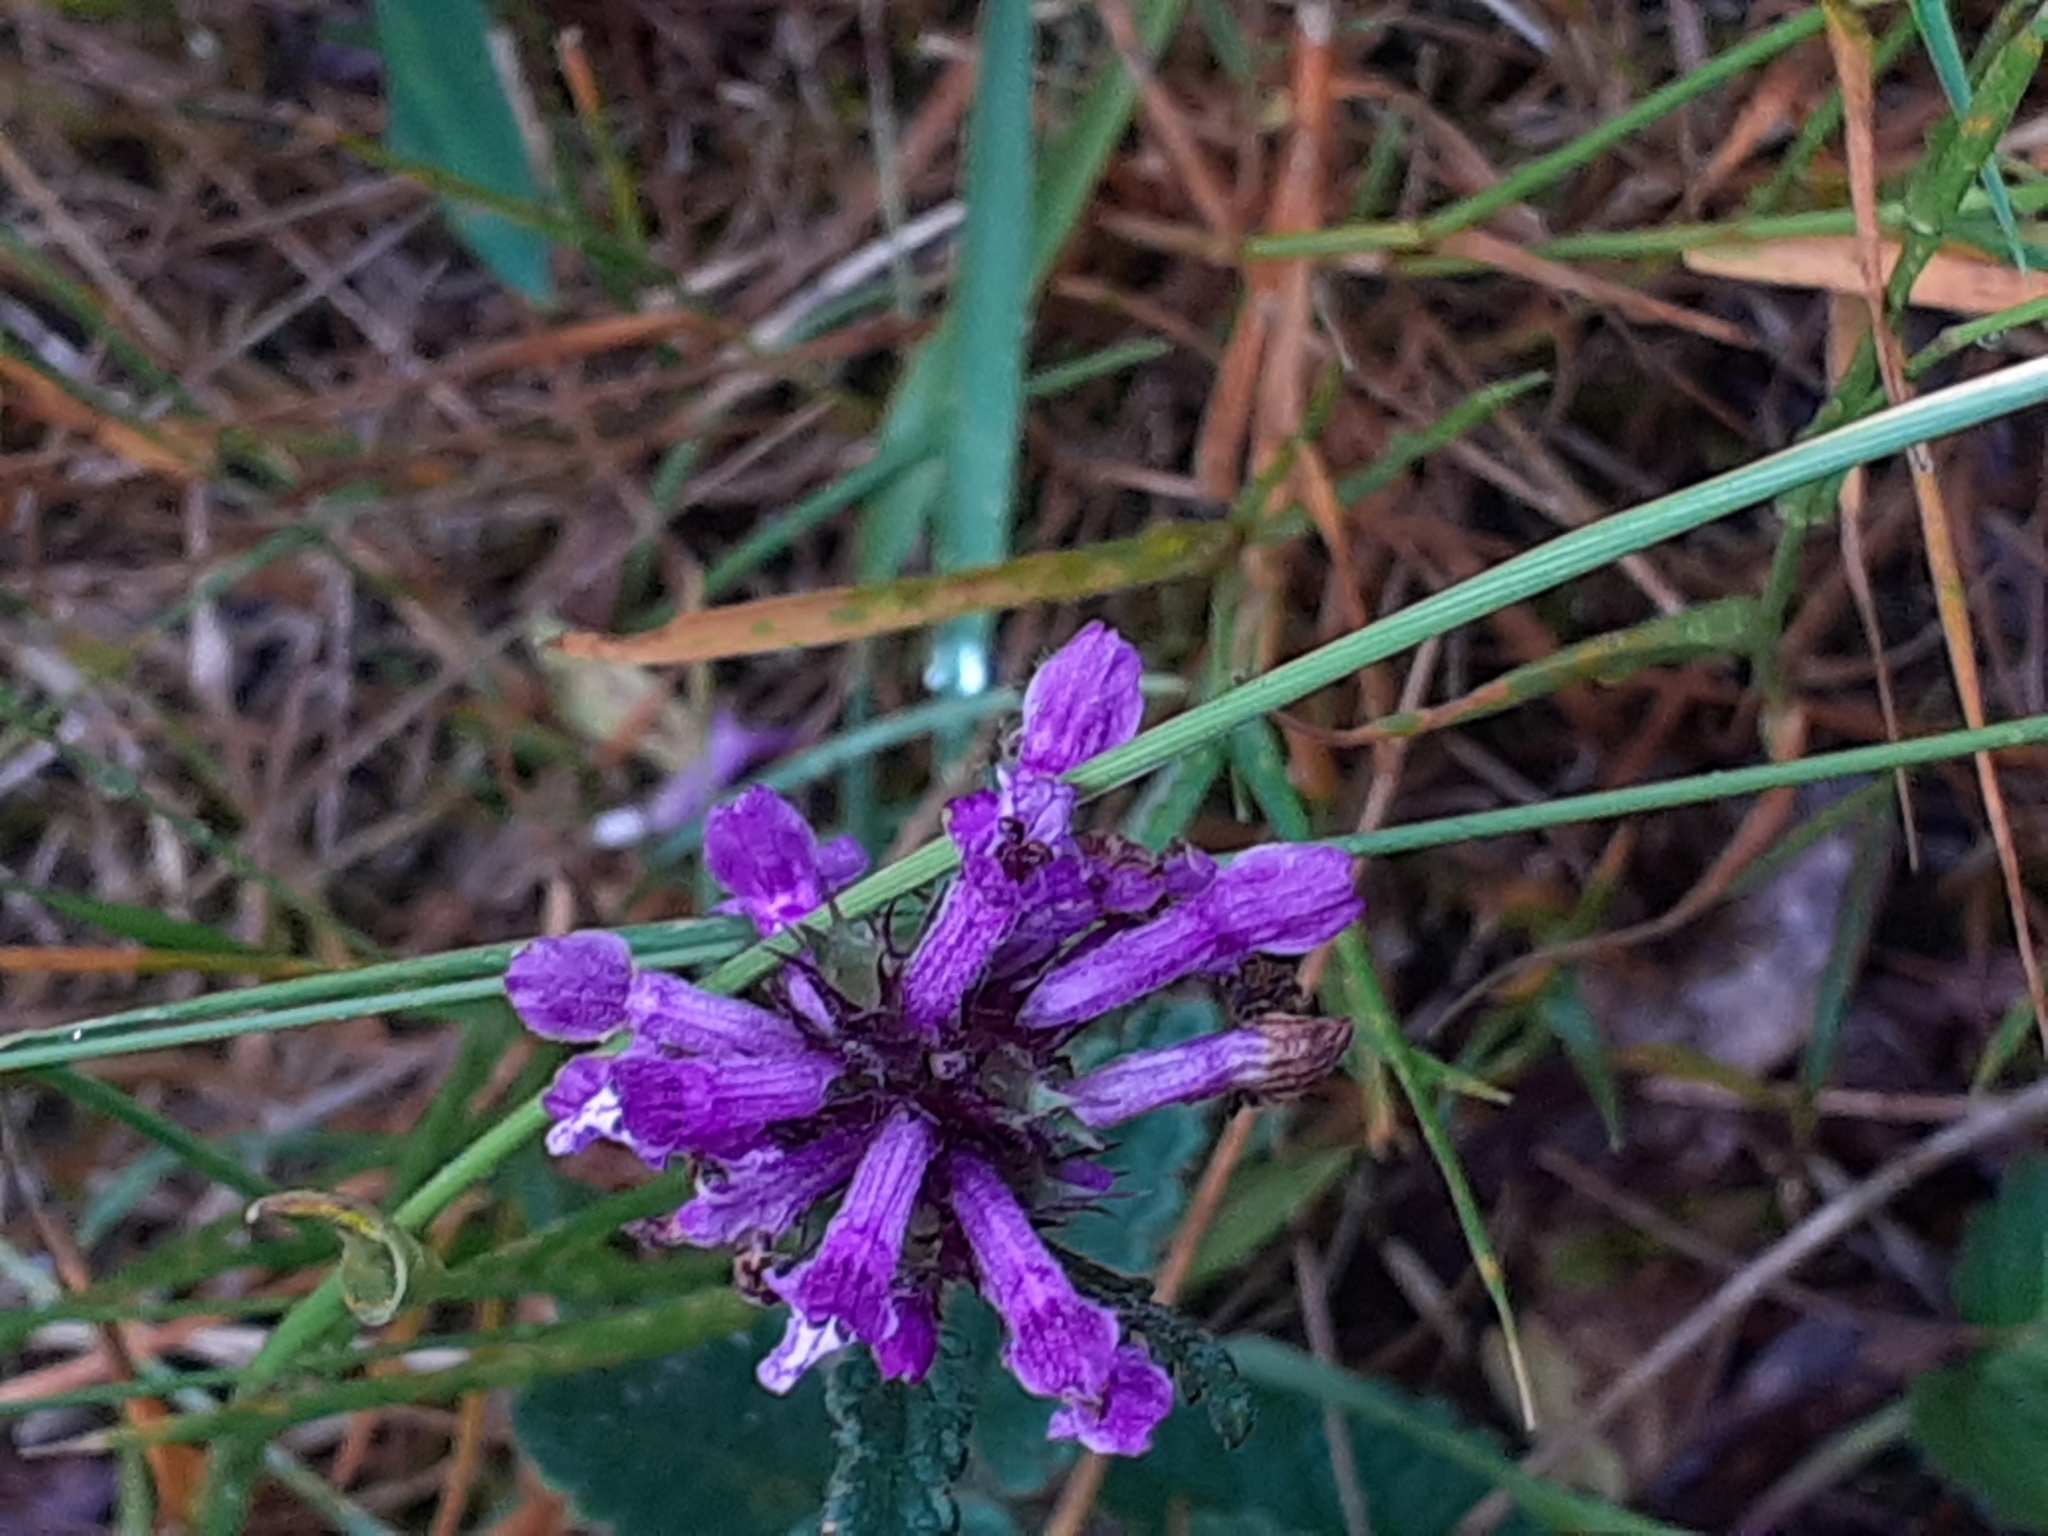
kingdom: Plantae
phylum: Tracheophyta
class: Magnoliopsida
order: Lamiales
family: Lamiaceae
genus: Betonica
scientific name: Betonica officinalis
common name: Bishop's-wort
